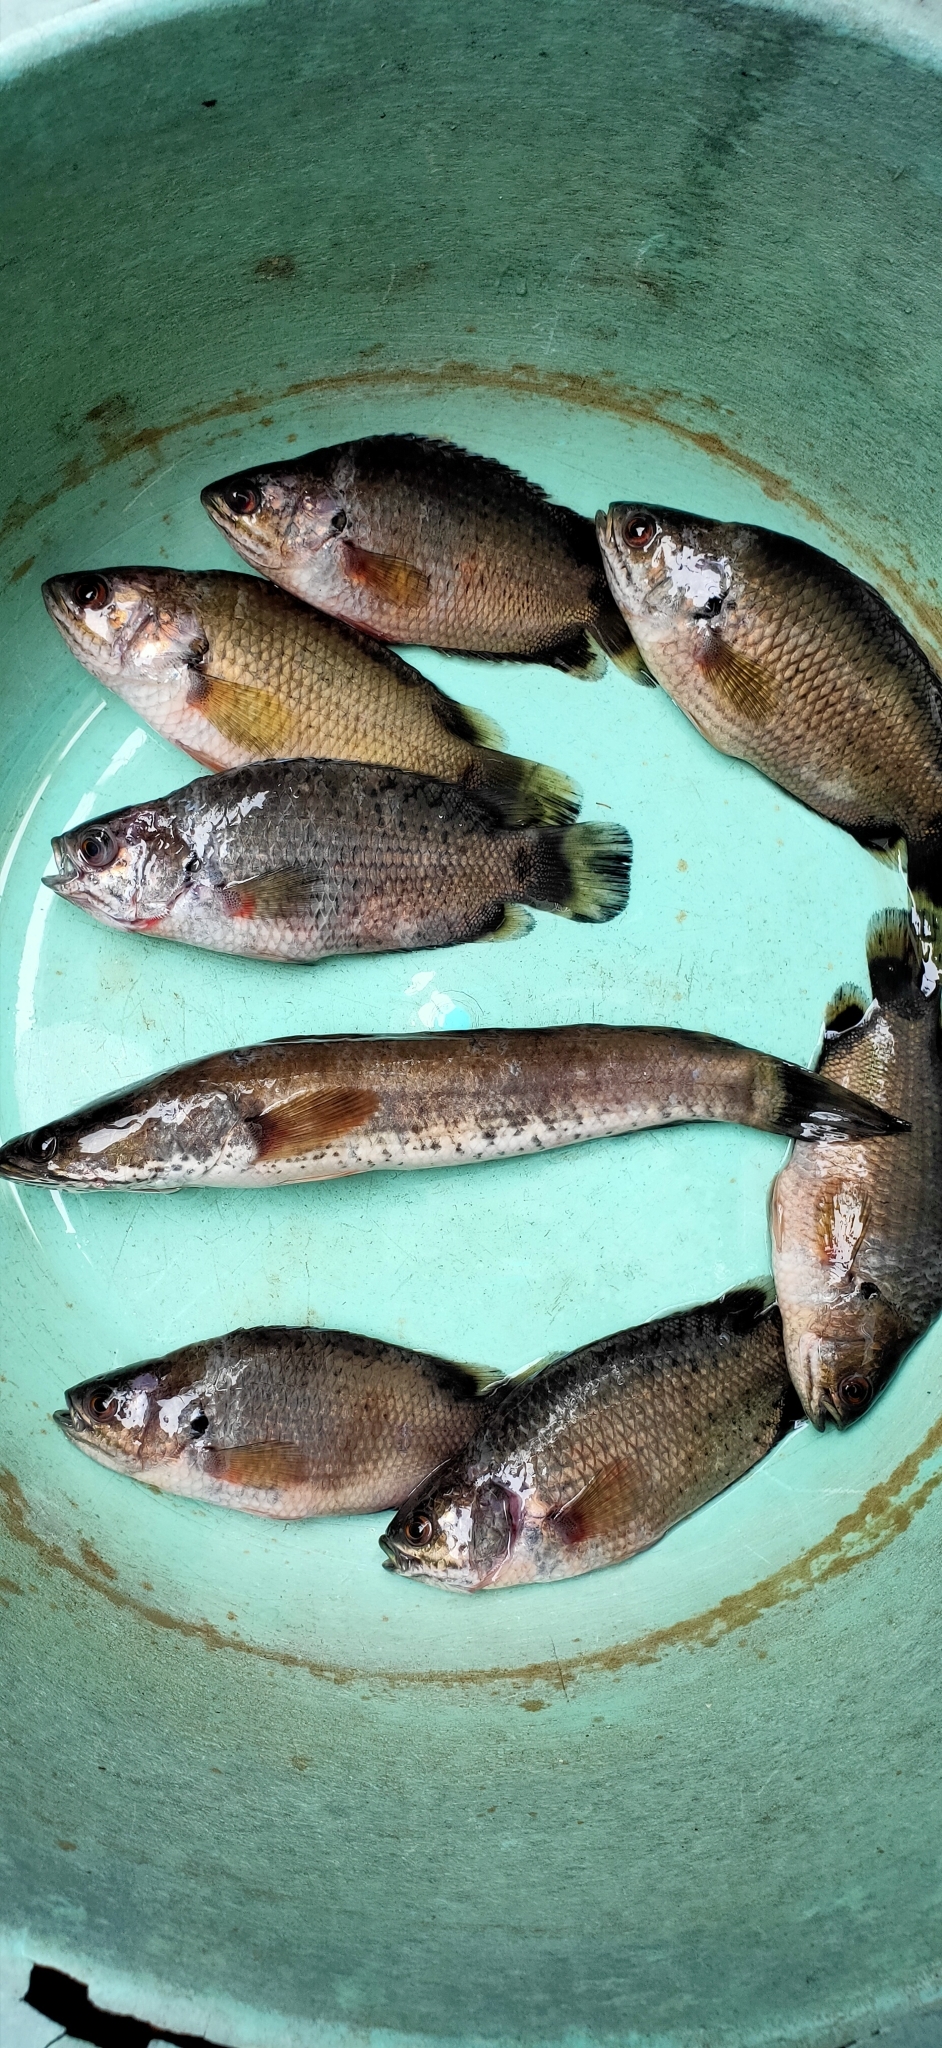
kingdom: Animalia
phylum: Chordata
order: Perciformes
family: Channidae
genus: Channa
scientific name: Channa striata
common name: Striped snakehead
